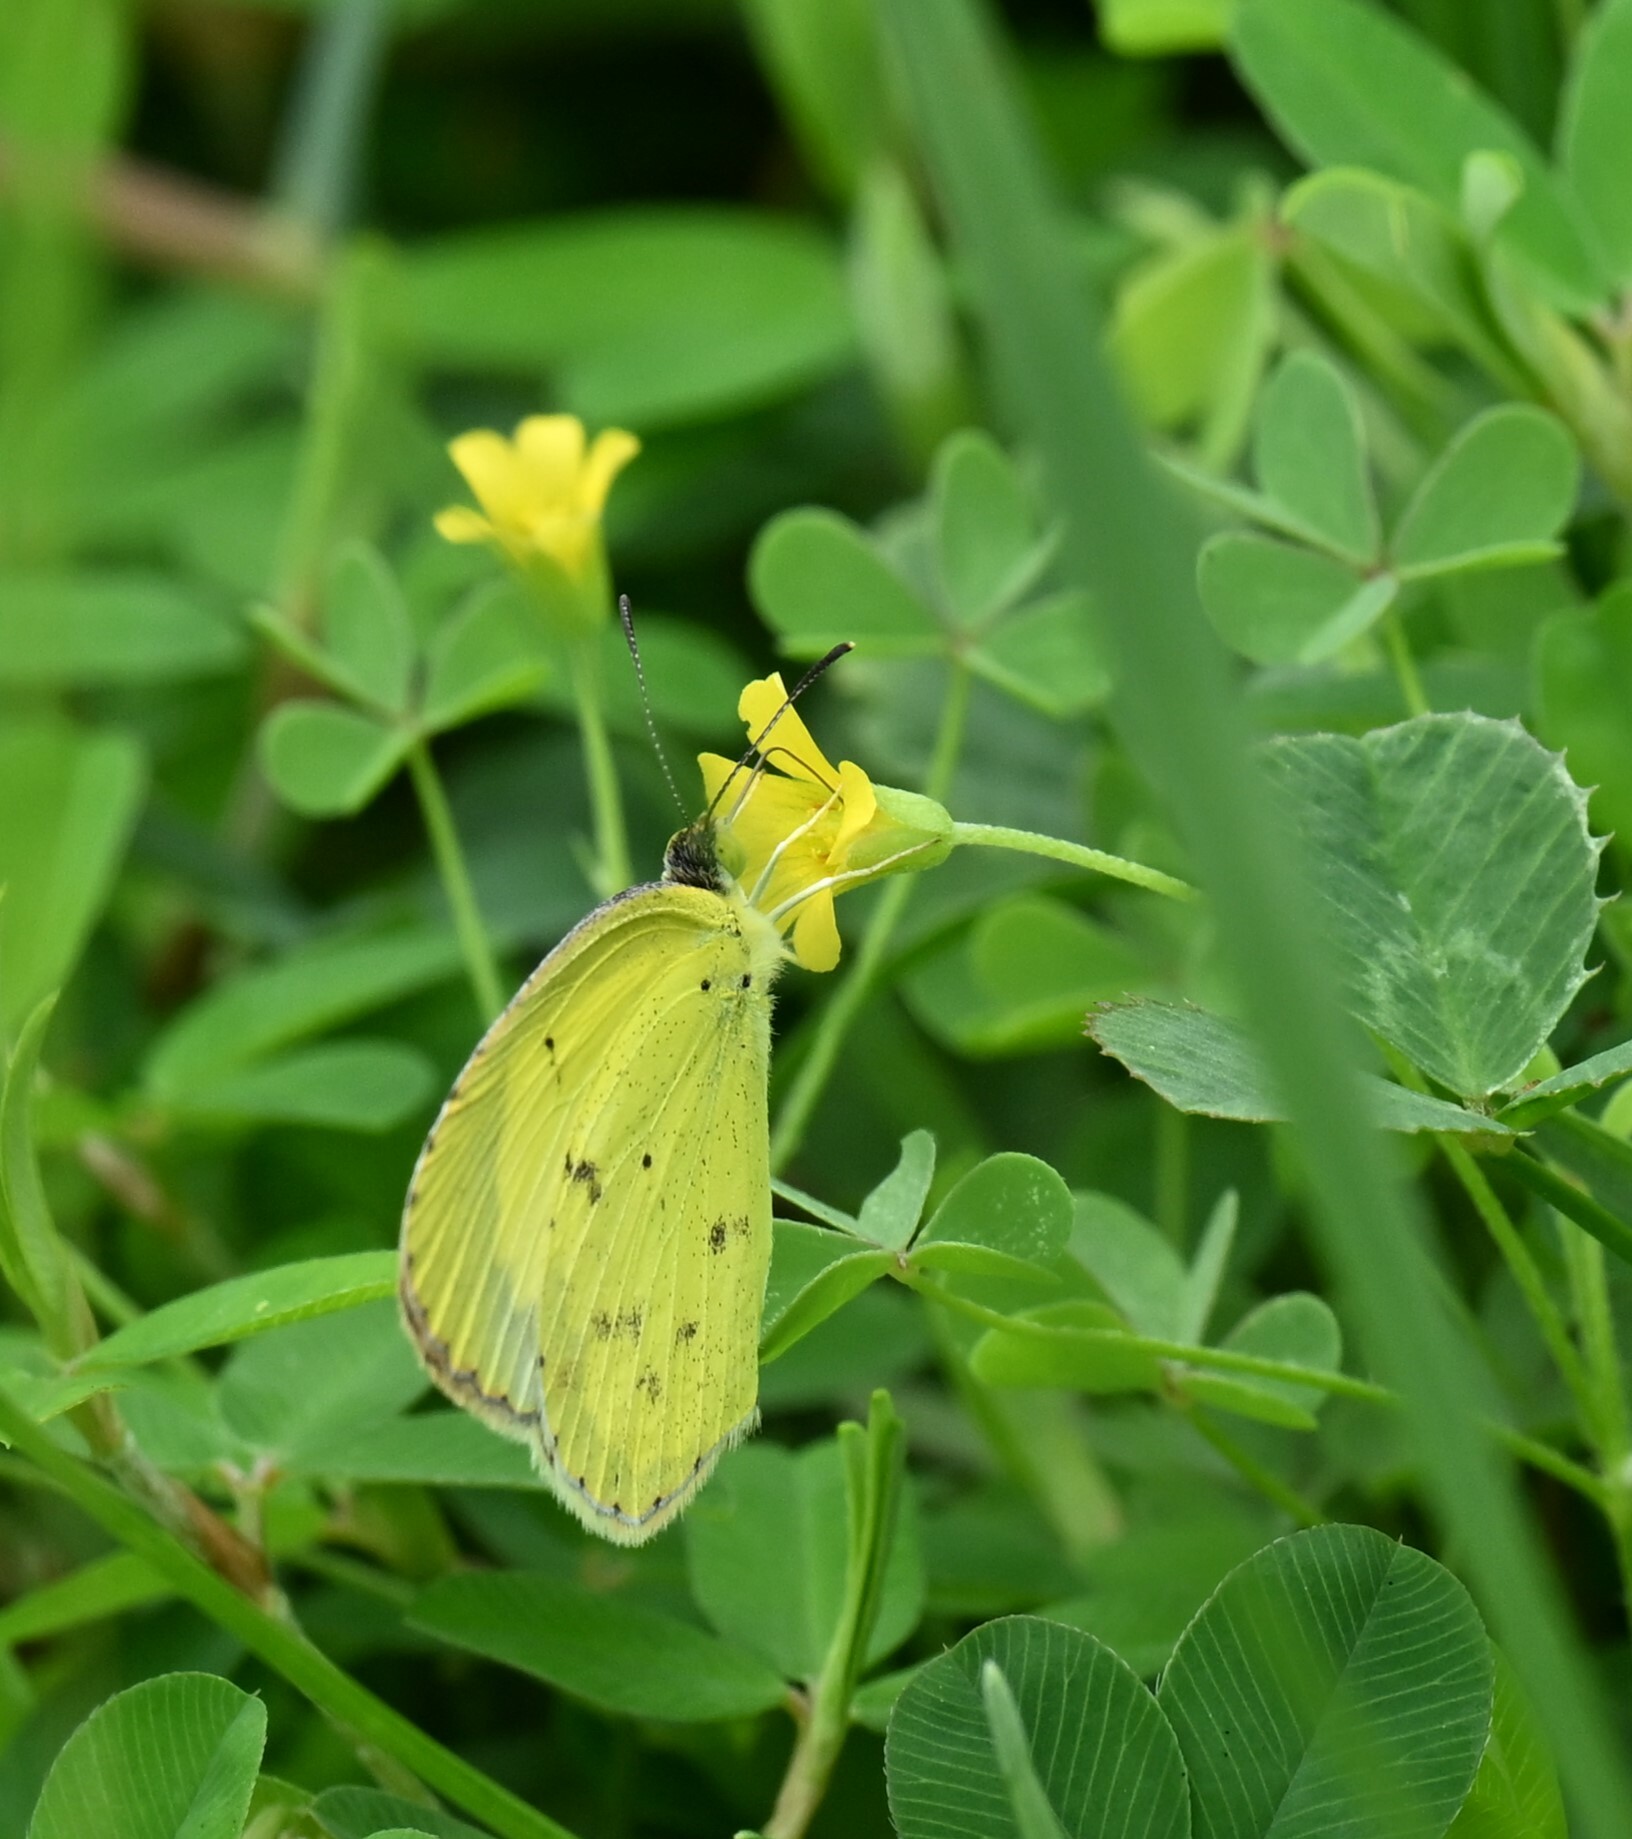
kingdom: Animalia
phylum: Arthropoda
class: Insecta
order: Lepidoptera
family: Pieridae
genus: Pyrisitia
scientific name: Pyrisitia lisa
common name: Little yellow
